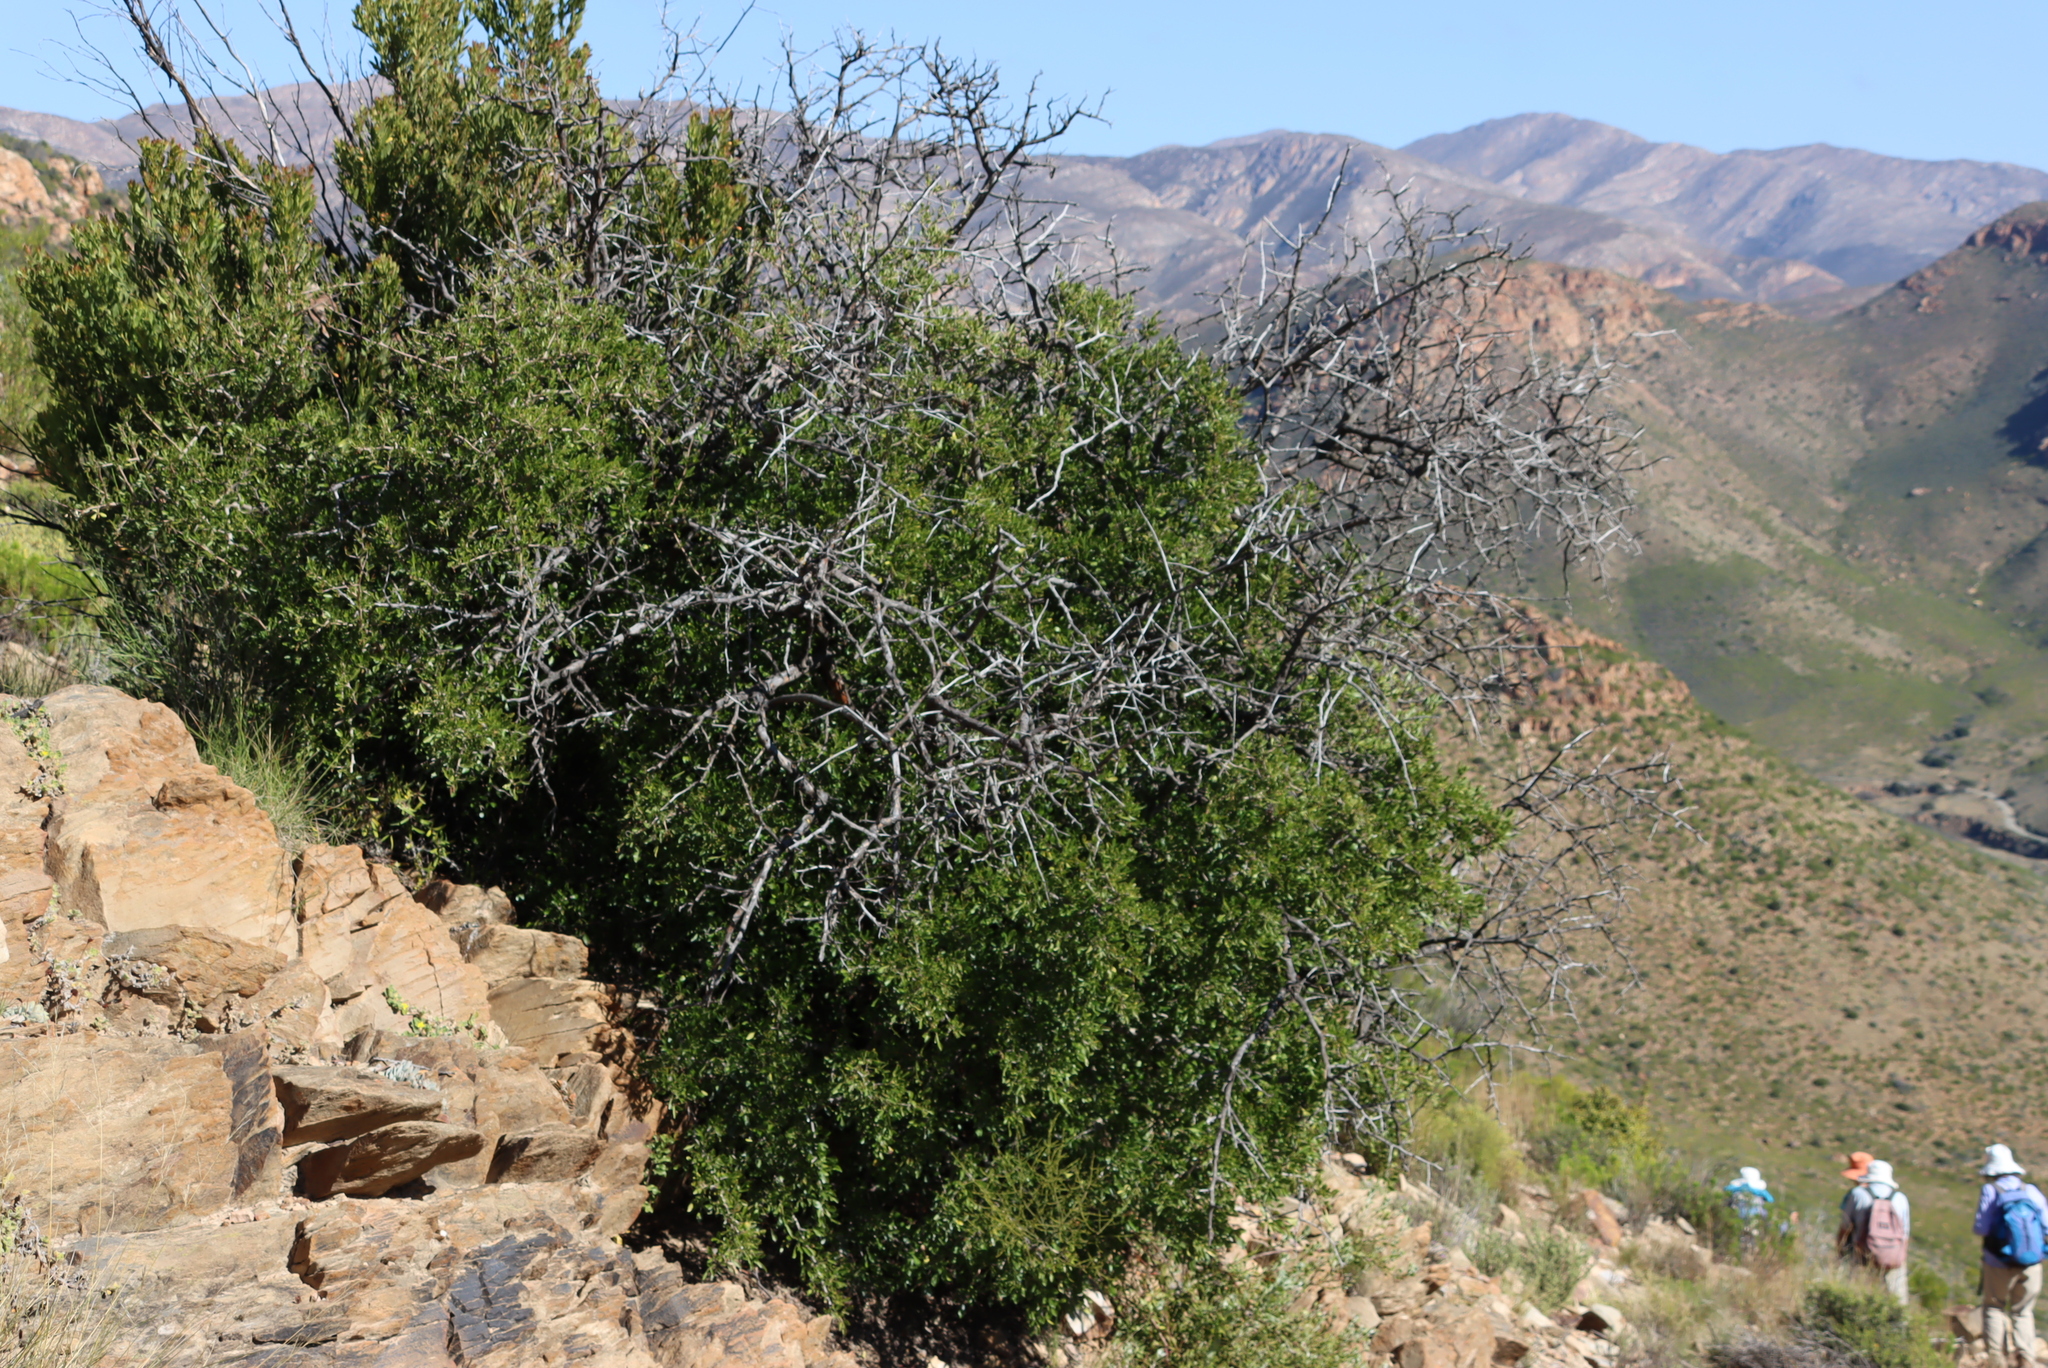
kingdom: Plantae
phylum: Tracheophyta
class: Magnoliopsida
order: Sapindales
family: Anacardiaceae
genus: Searsia
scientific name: Searsia longispina
